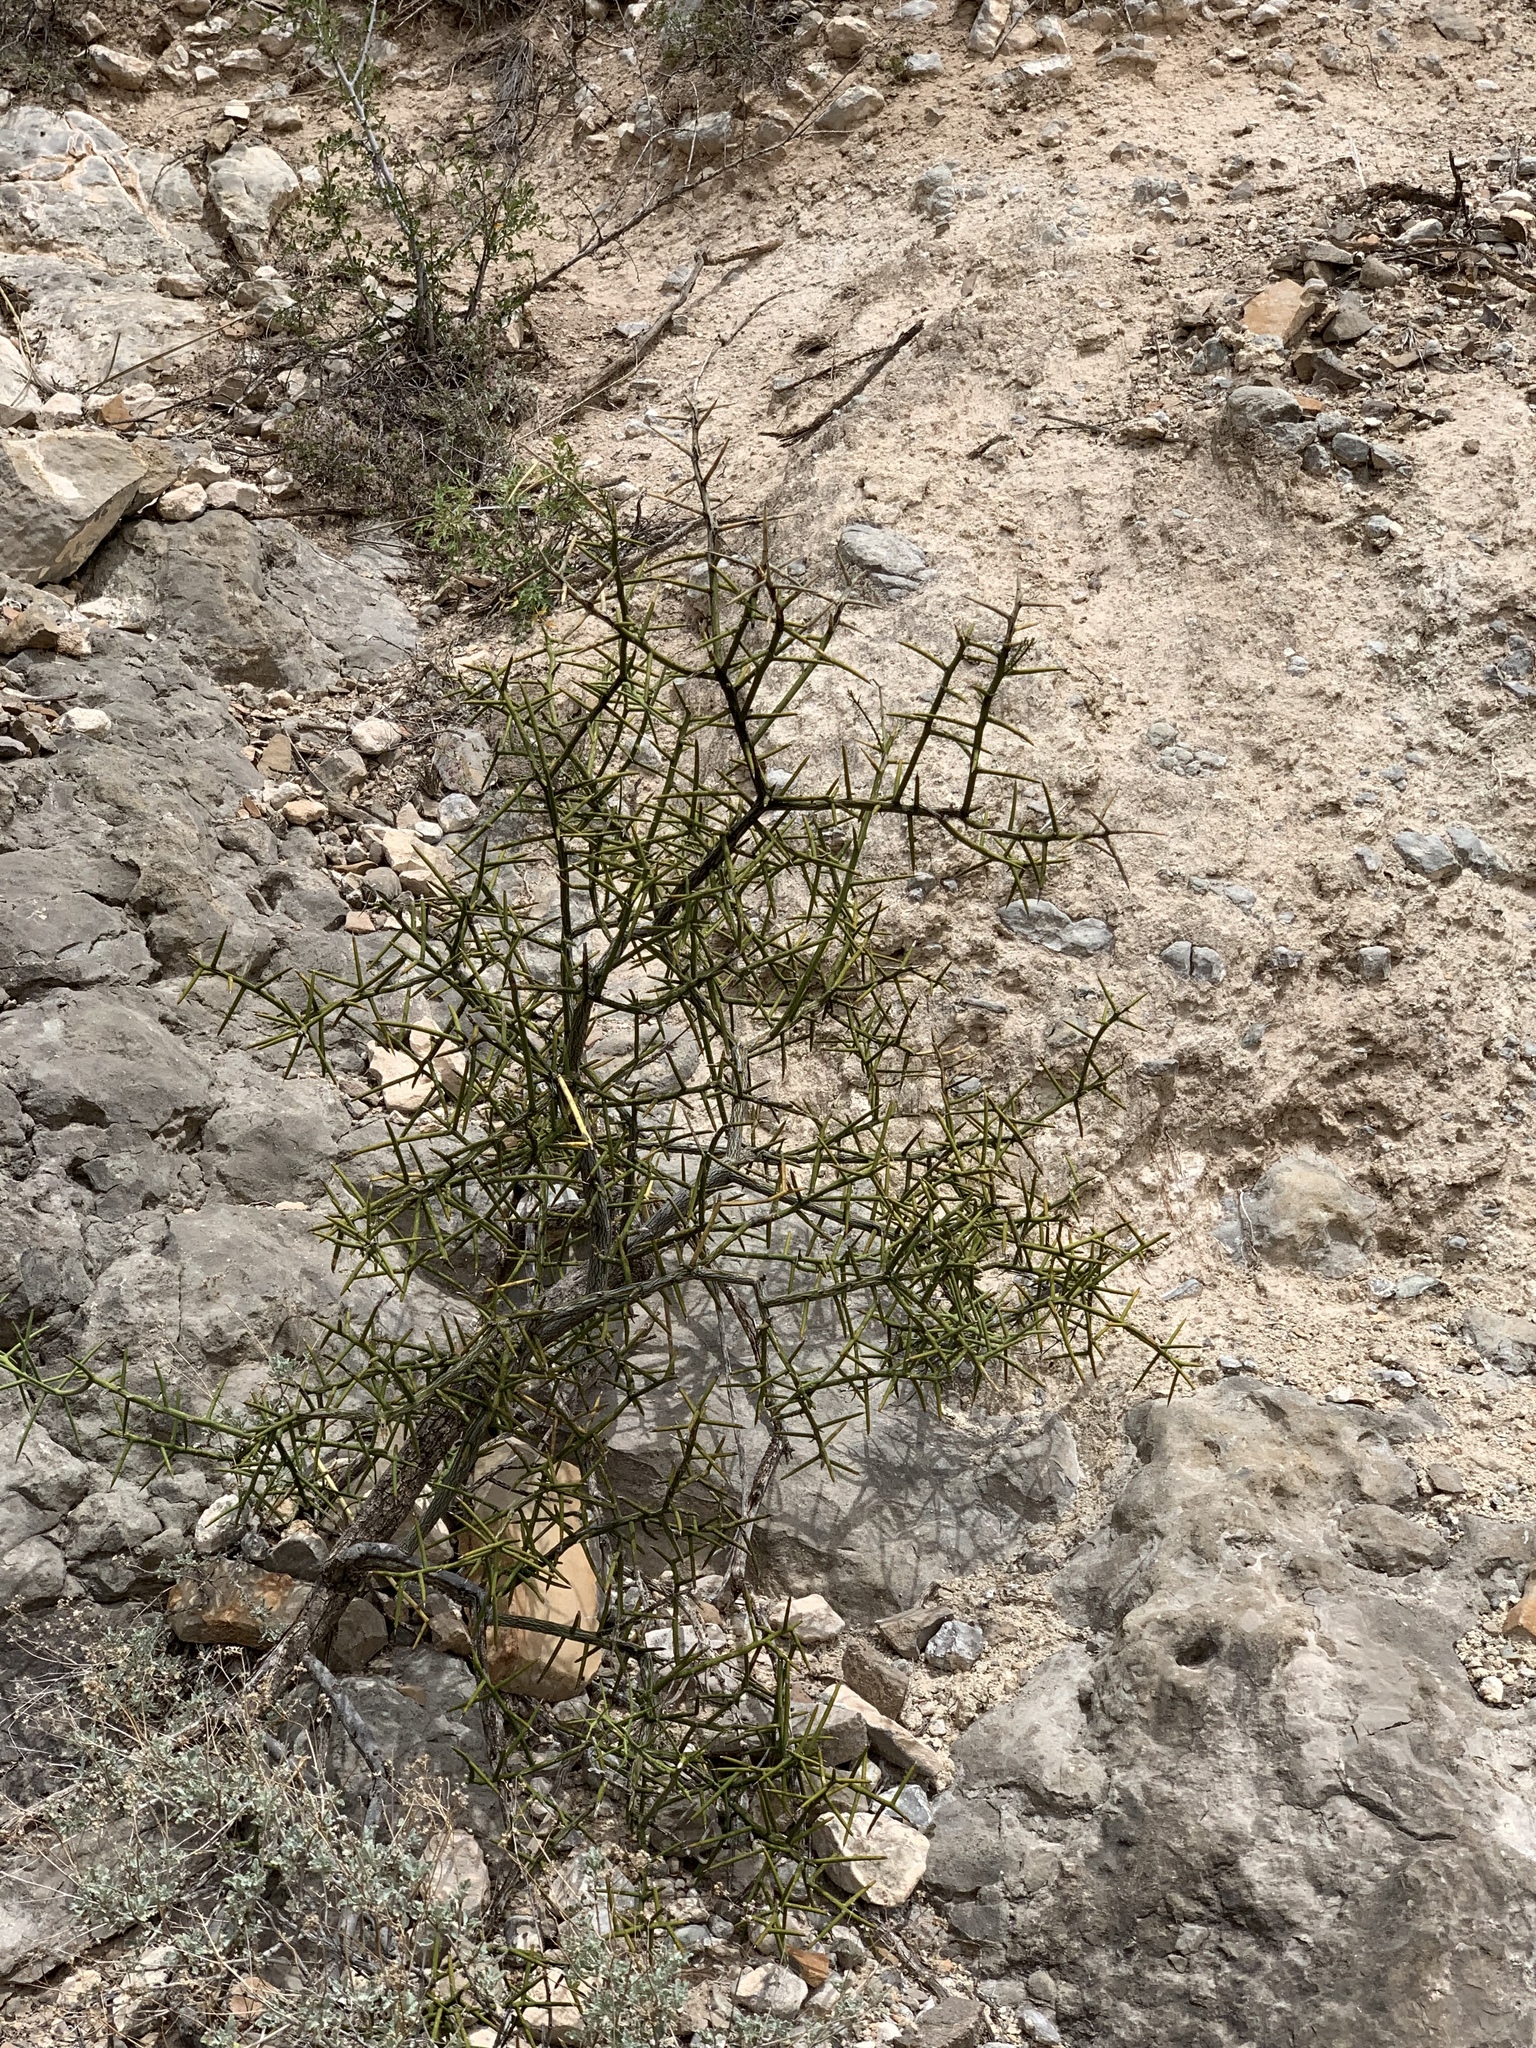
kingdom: Plantae
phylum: Tracheophyta
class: Magnoliopsida
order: Brassicales
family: Koeberliniaceae
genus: Koeberlinia
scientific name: Koeberlinia spinosa
